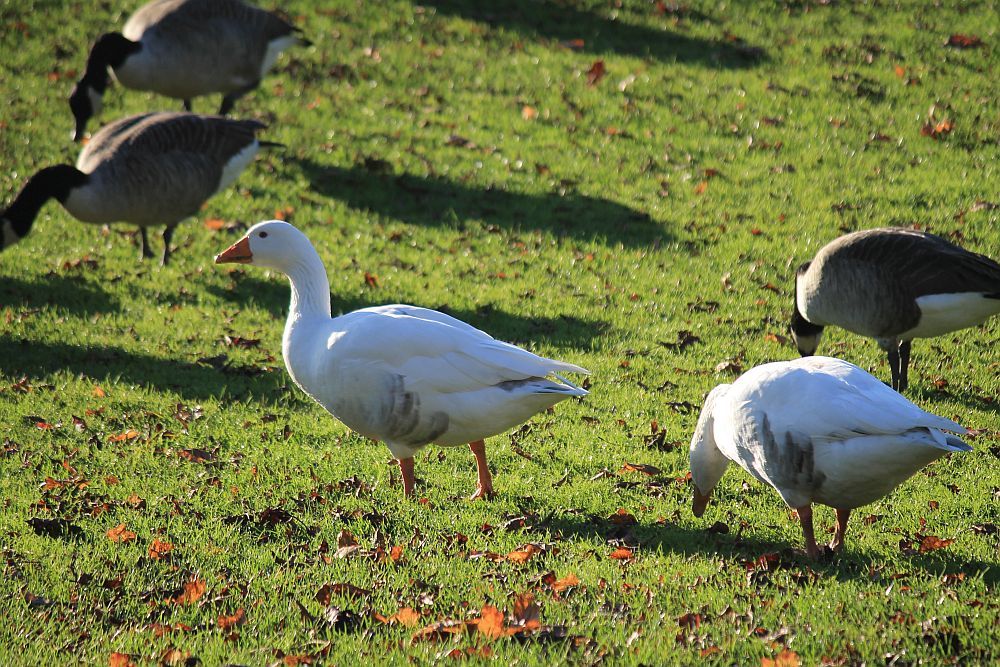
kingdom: Animalia
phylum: Chordata
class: Aves
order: Anseriformes
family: Anatidae
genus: Anser
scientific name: Anser anser
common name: Greylag goose
